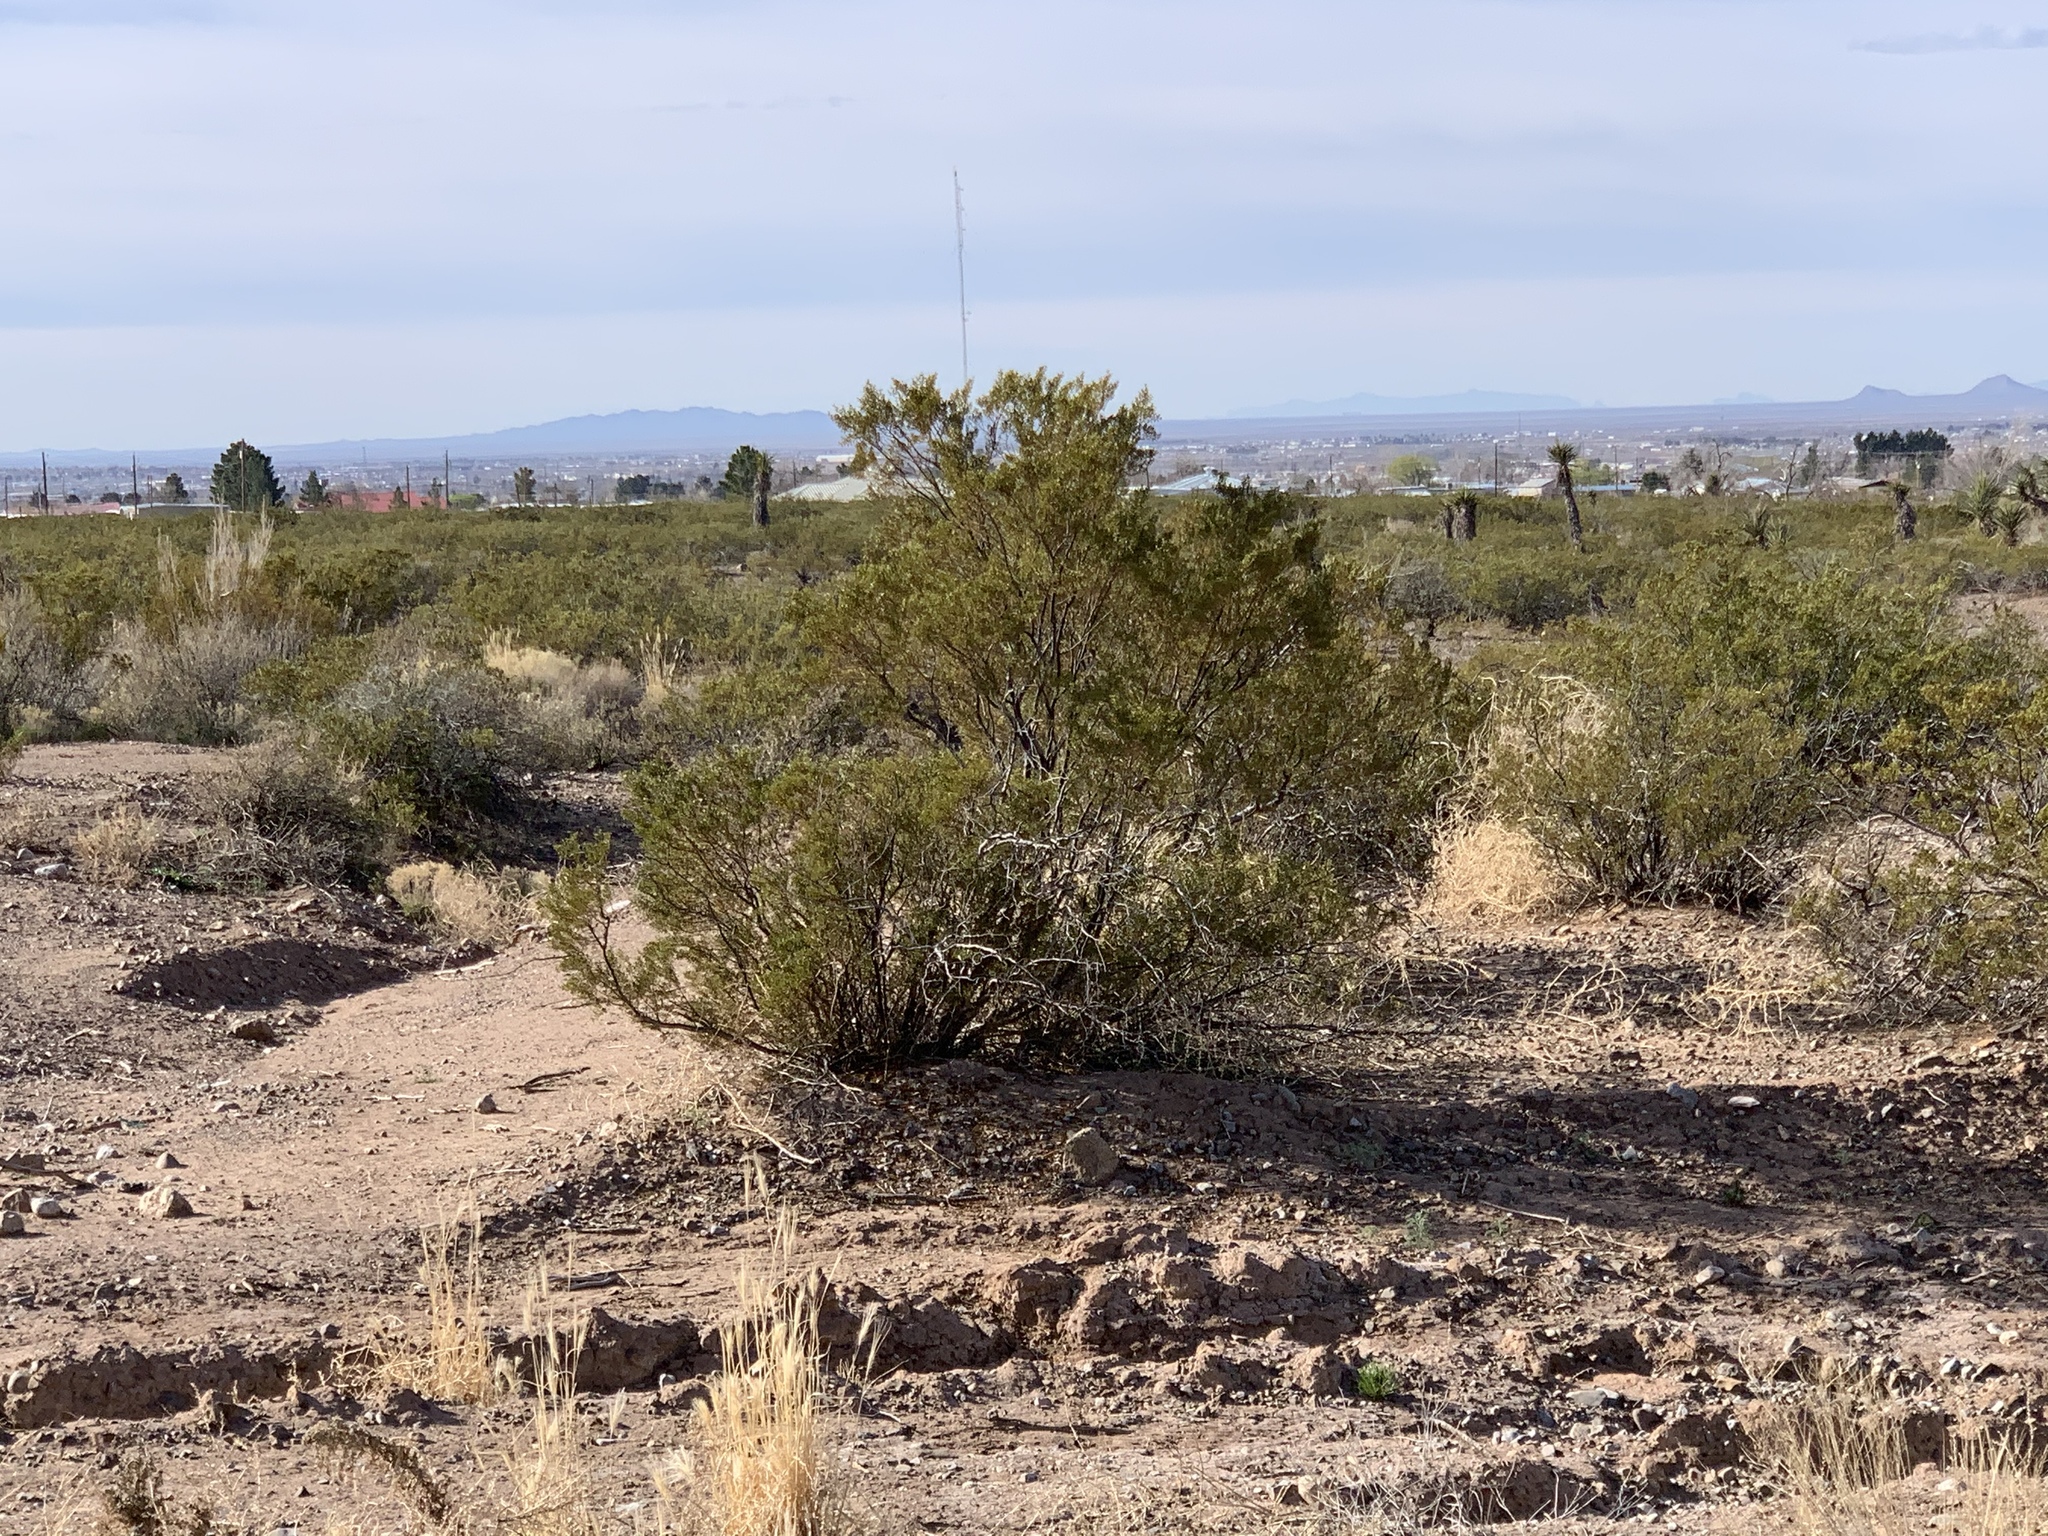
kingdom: Plantae
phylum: Tracheophyta
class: Magnoliopsida
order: Zygophyllales
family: Zygophyllaceae
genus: Larrea
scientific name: Larrea tridentata
